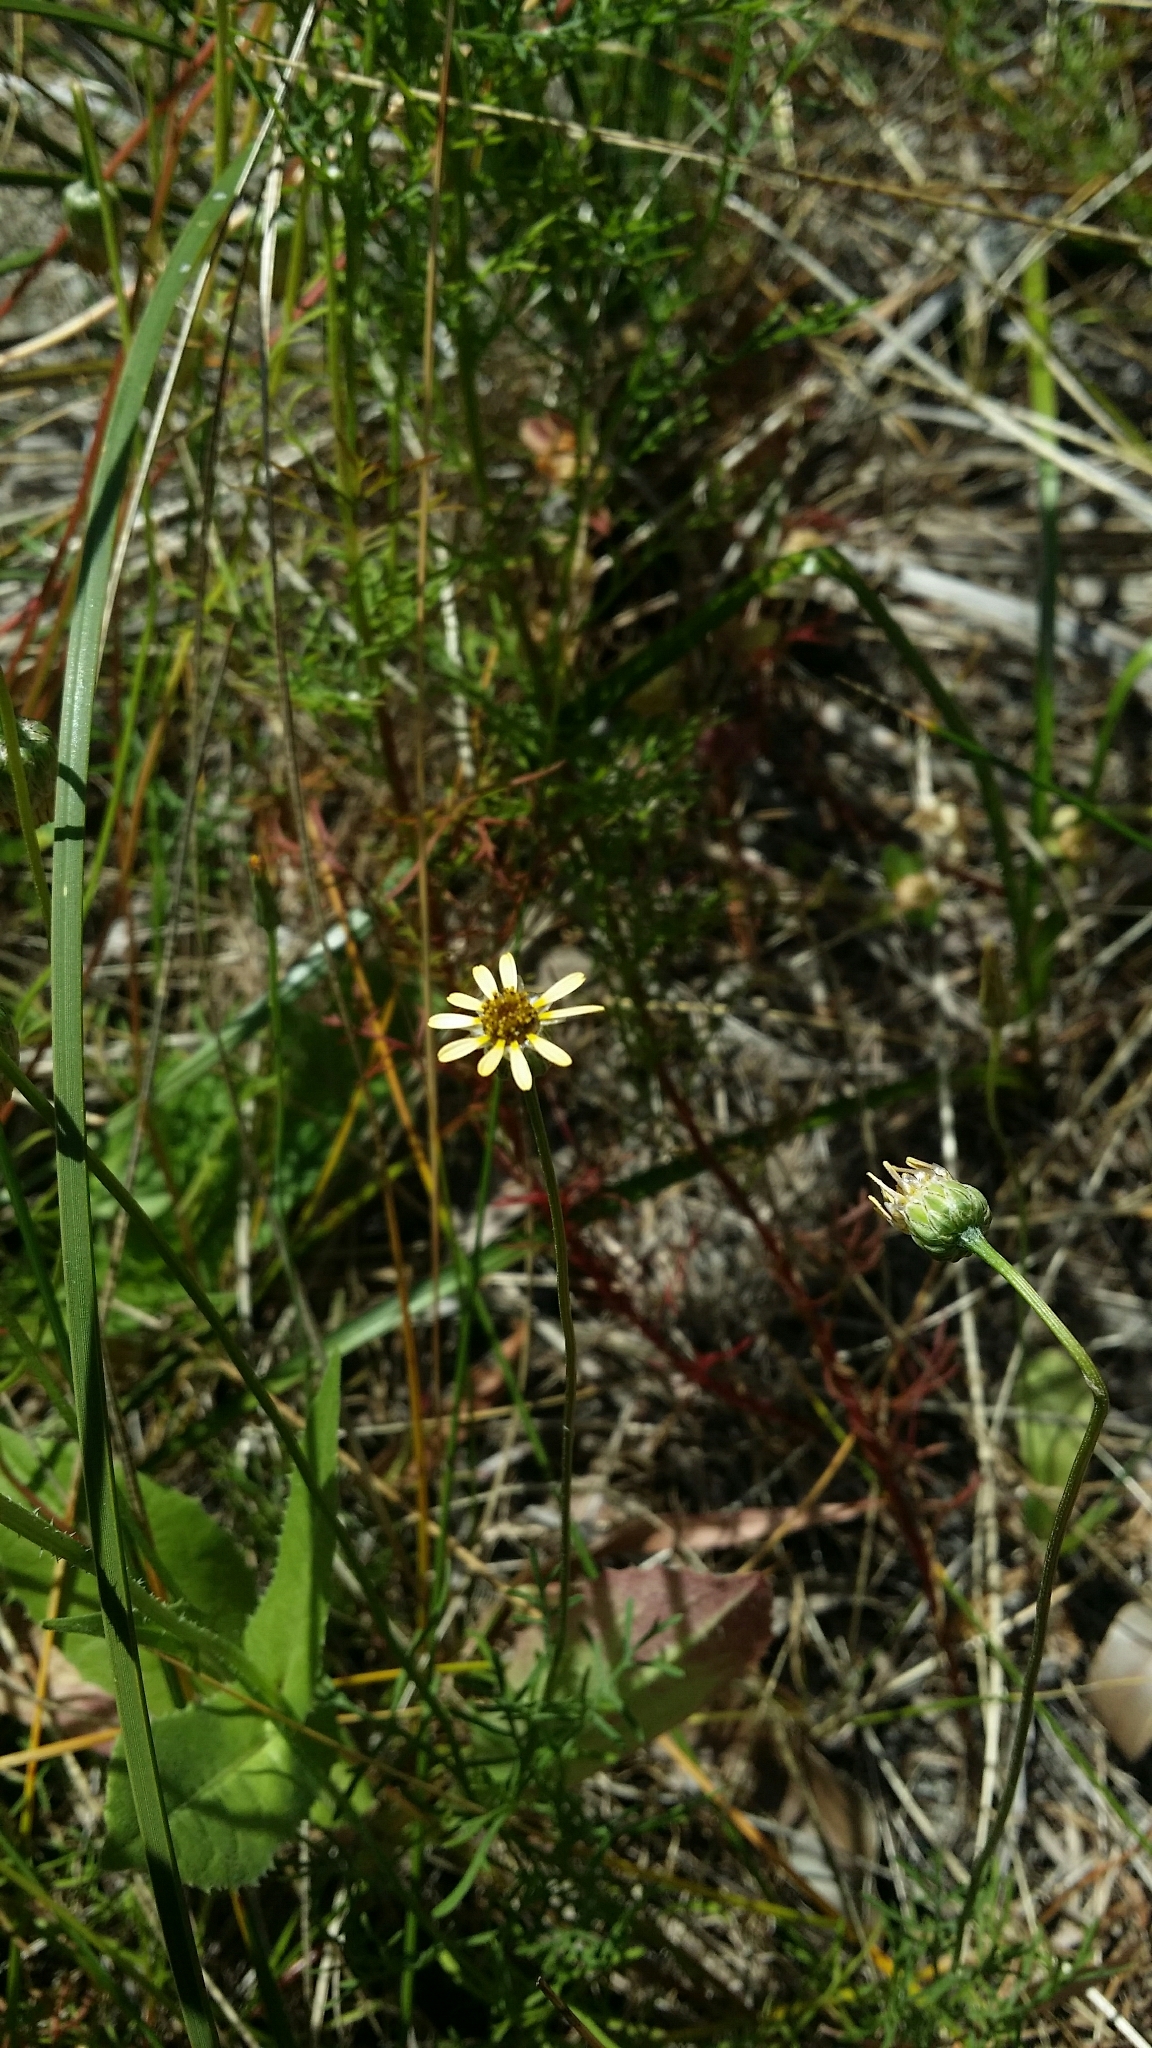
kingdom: Plantae
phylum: Tracheophyta
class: Magnoliopsida
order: Asterales
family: Asteraceae
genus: Ursinia
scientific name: Ursinia anthemoides
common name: Ursinia
